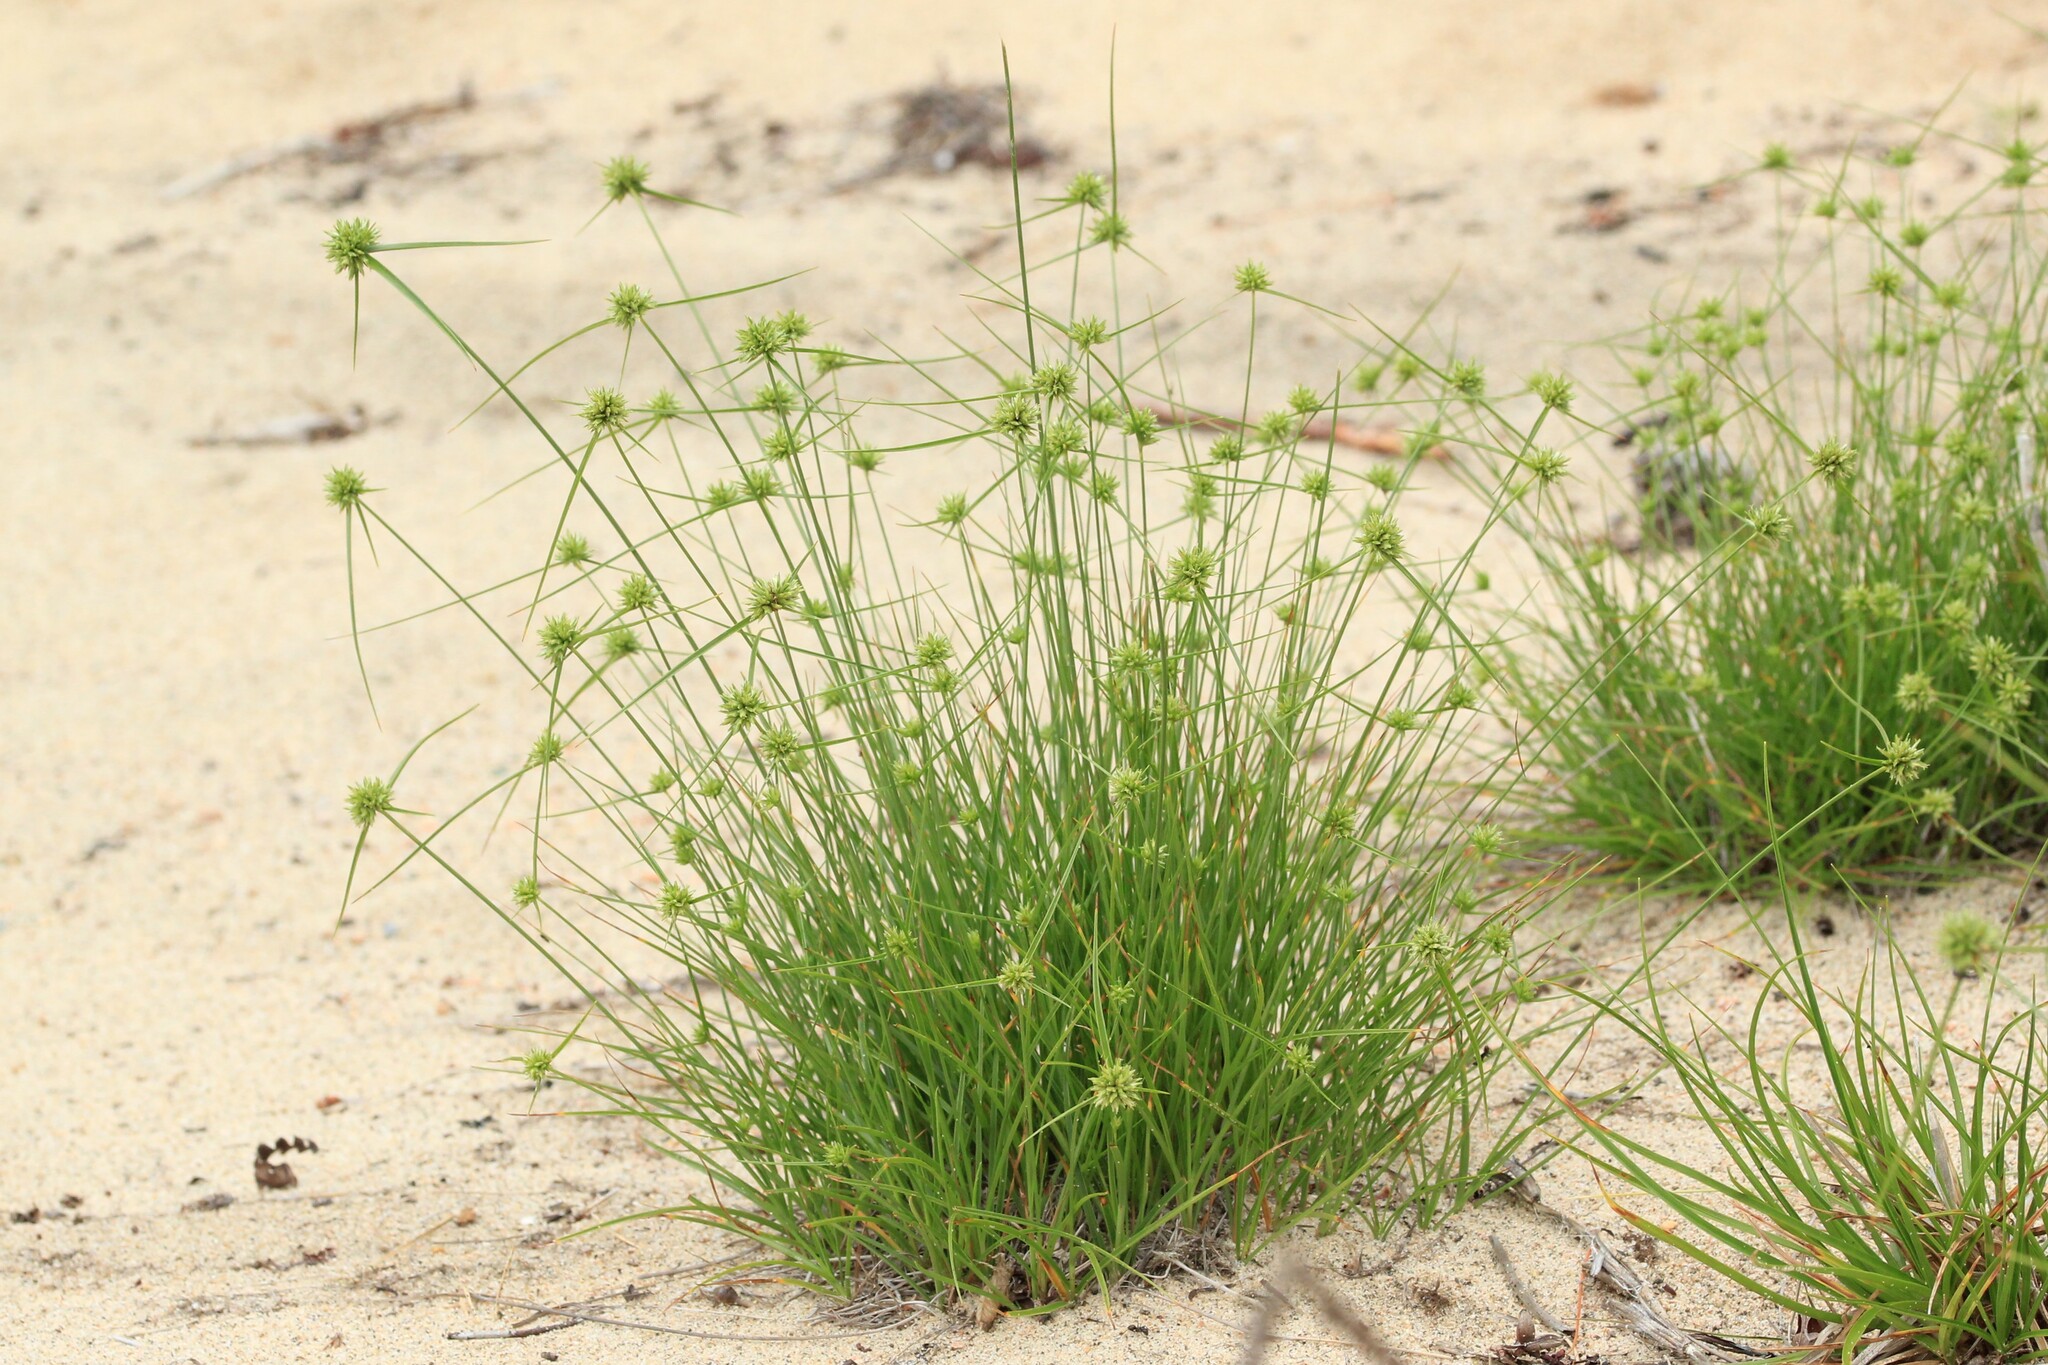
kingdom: Plantae
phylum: Tracheophyta
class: Liliopsida
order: Poales
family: Cyperaceae
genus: Cyperus
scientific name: Cyperus lupulinus
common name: Great plains flatsedge
